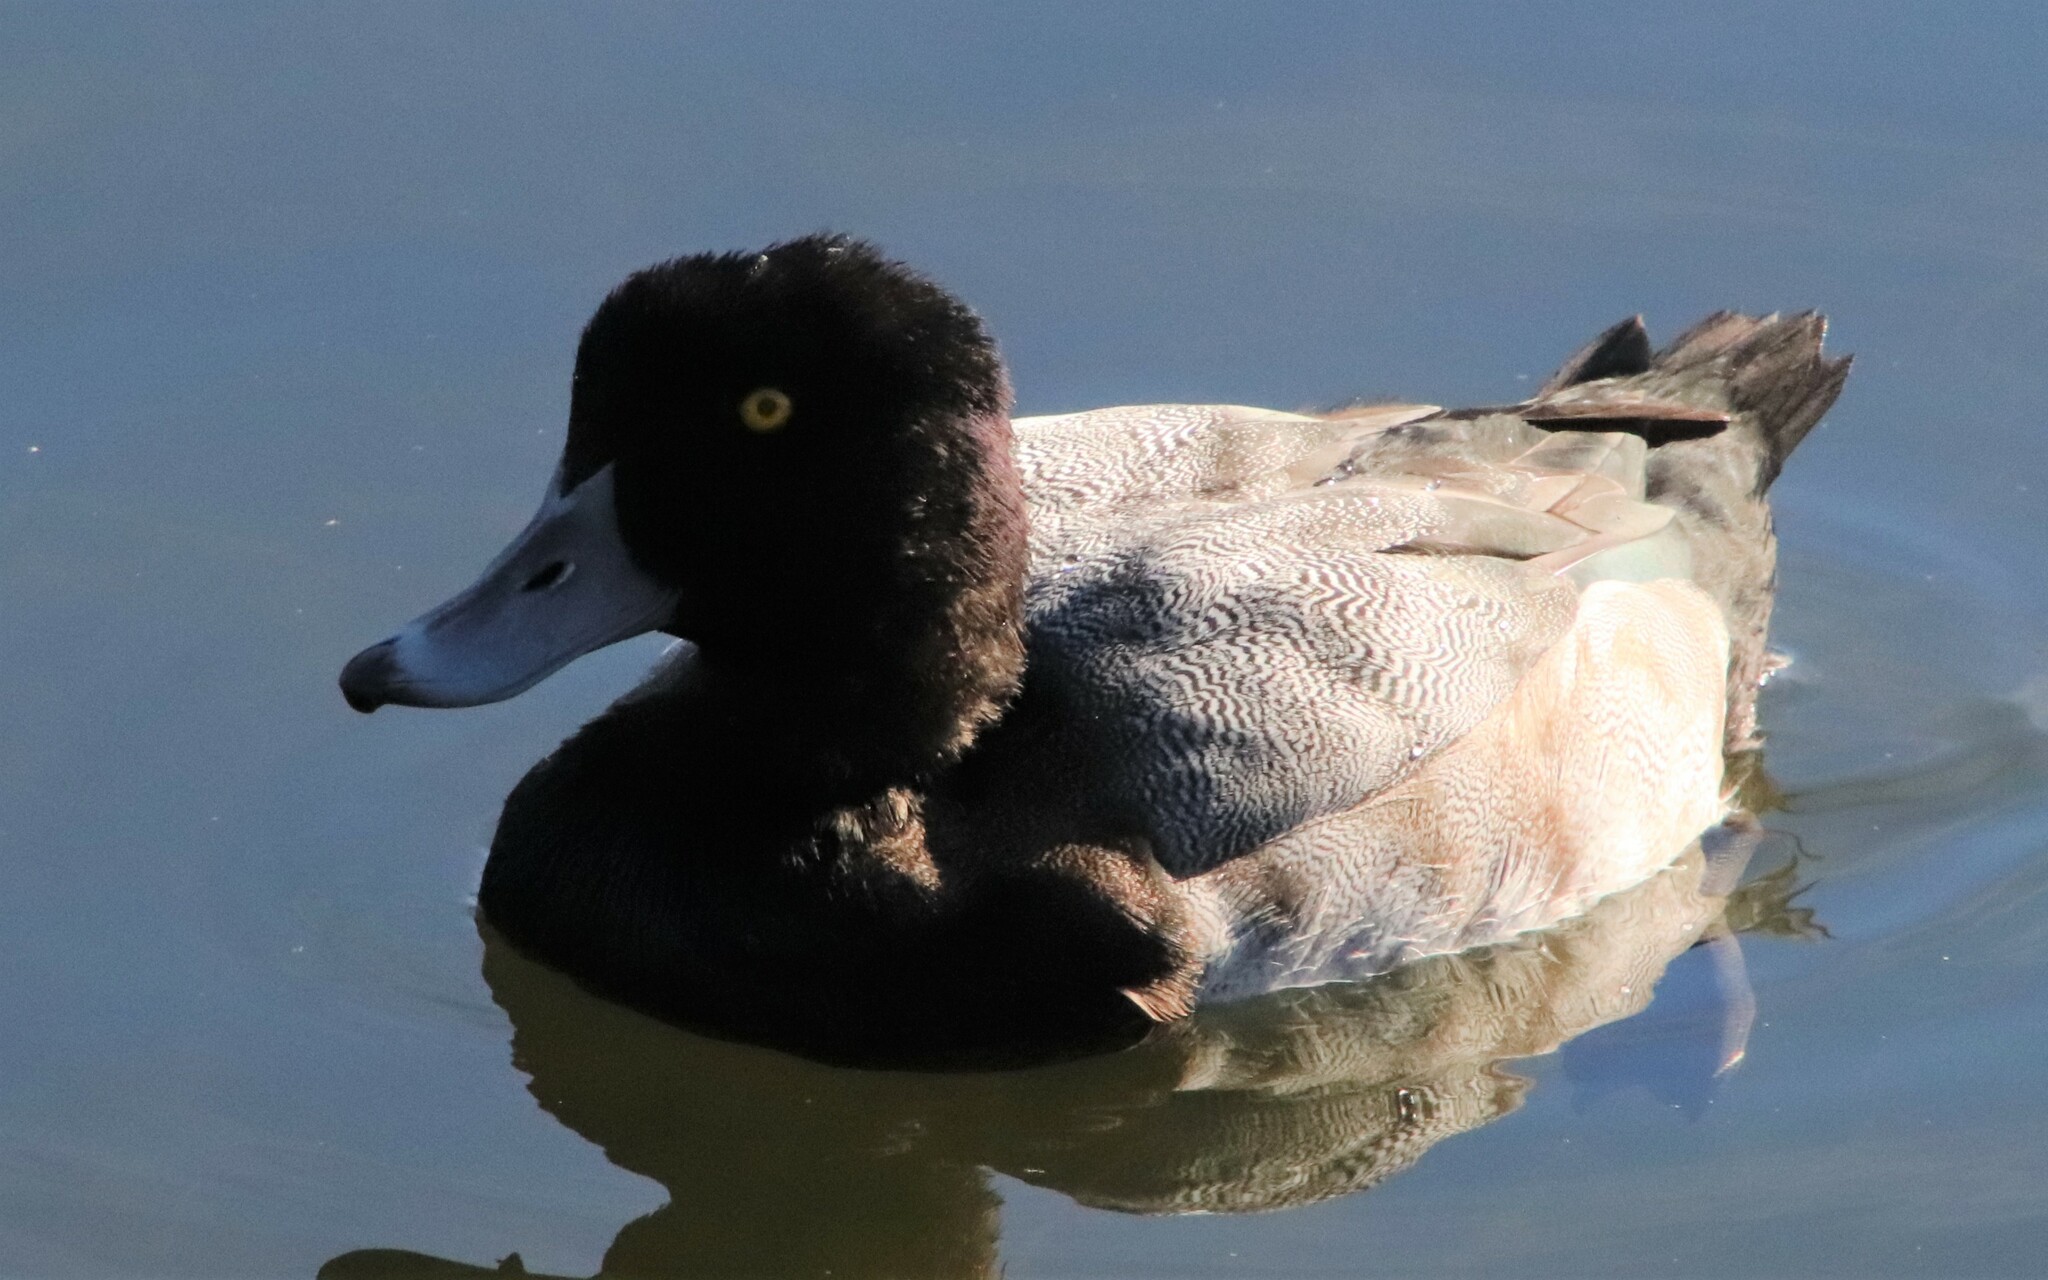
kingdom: Animalia
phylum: Chordata
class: Aves
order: Anseriformes
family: Anatidae
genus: Aythya
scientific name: Aythya
